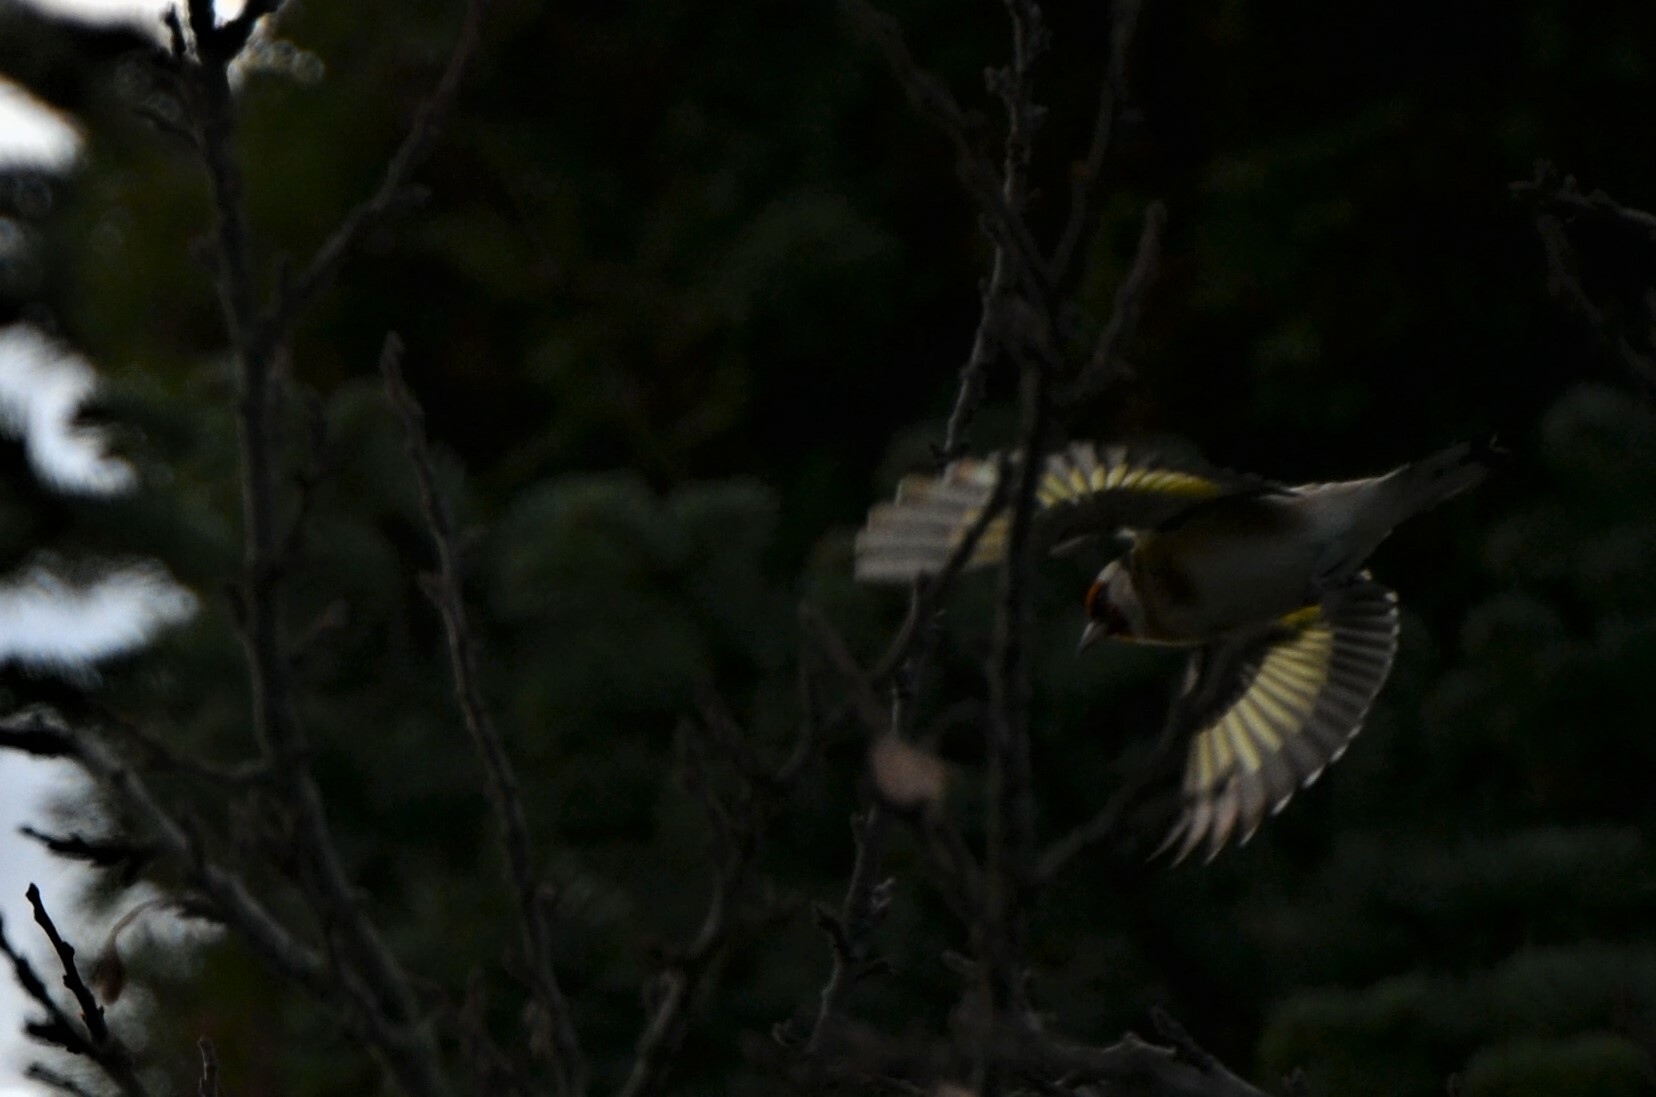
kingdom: Animalia
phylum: Chordata
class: Aves
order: Passeriformes
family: Fringillidae
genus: Carduelis
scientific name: Carduelis carduelis
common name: European goldfinch
